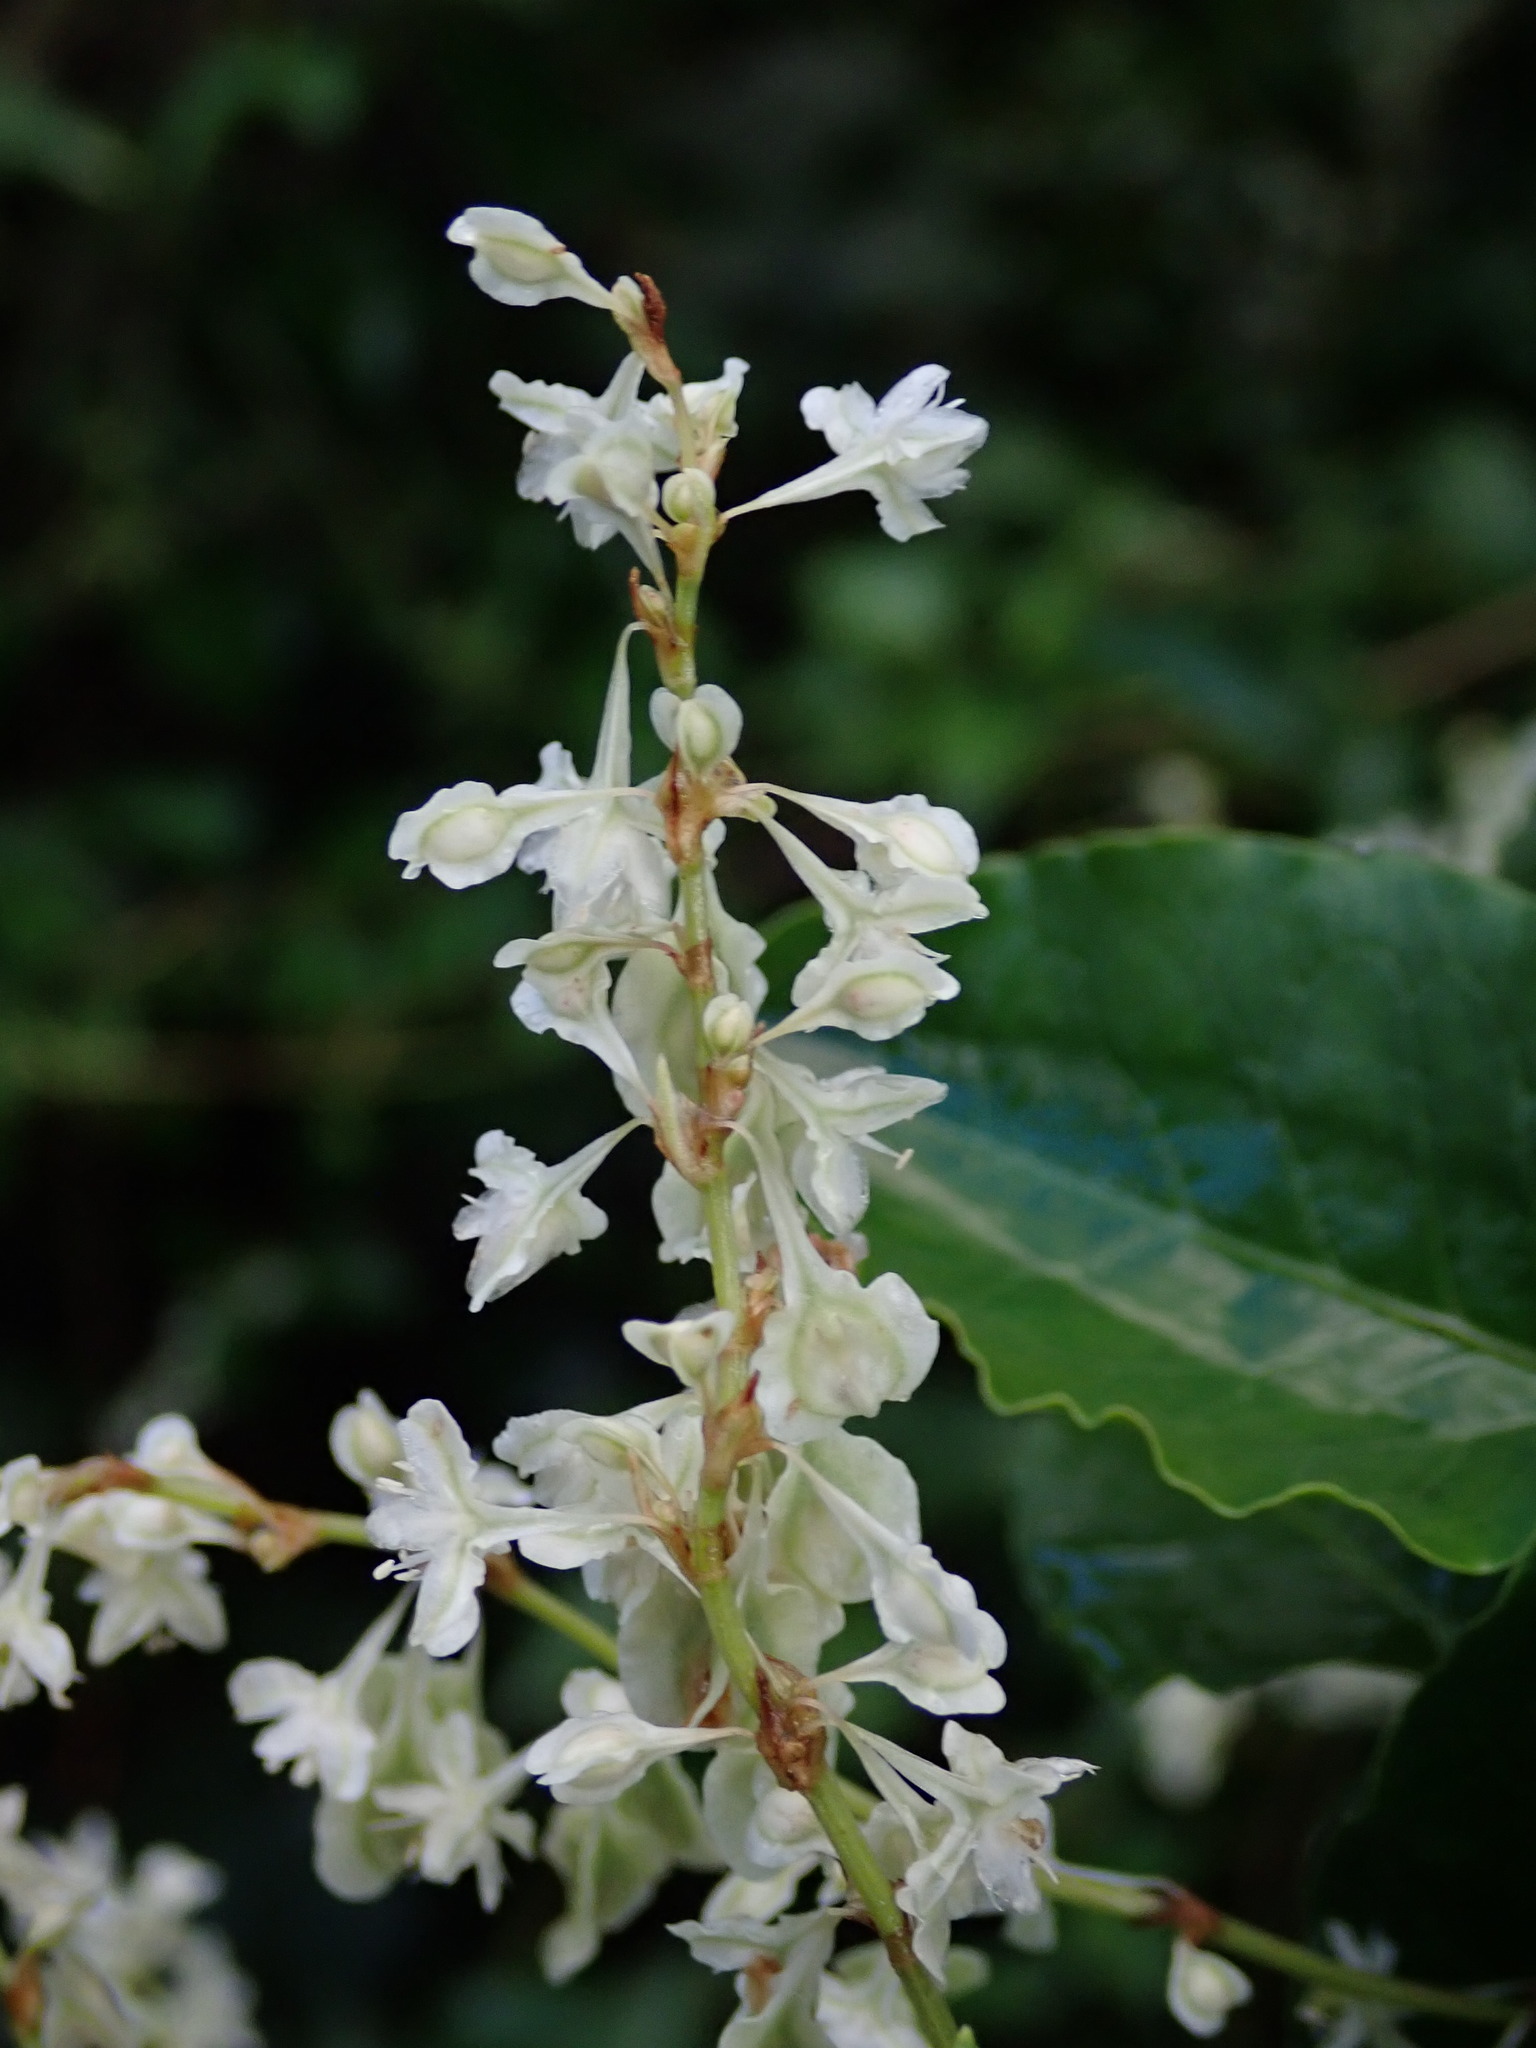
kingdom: Plantae
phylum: Tracheophyta
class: Magnoliopsida
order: Caryophyllales
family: Polygonaceae
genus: Fallopia
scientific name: Fallopia baldschuanica
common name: Russian-vine
